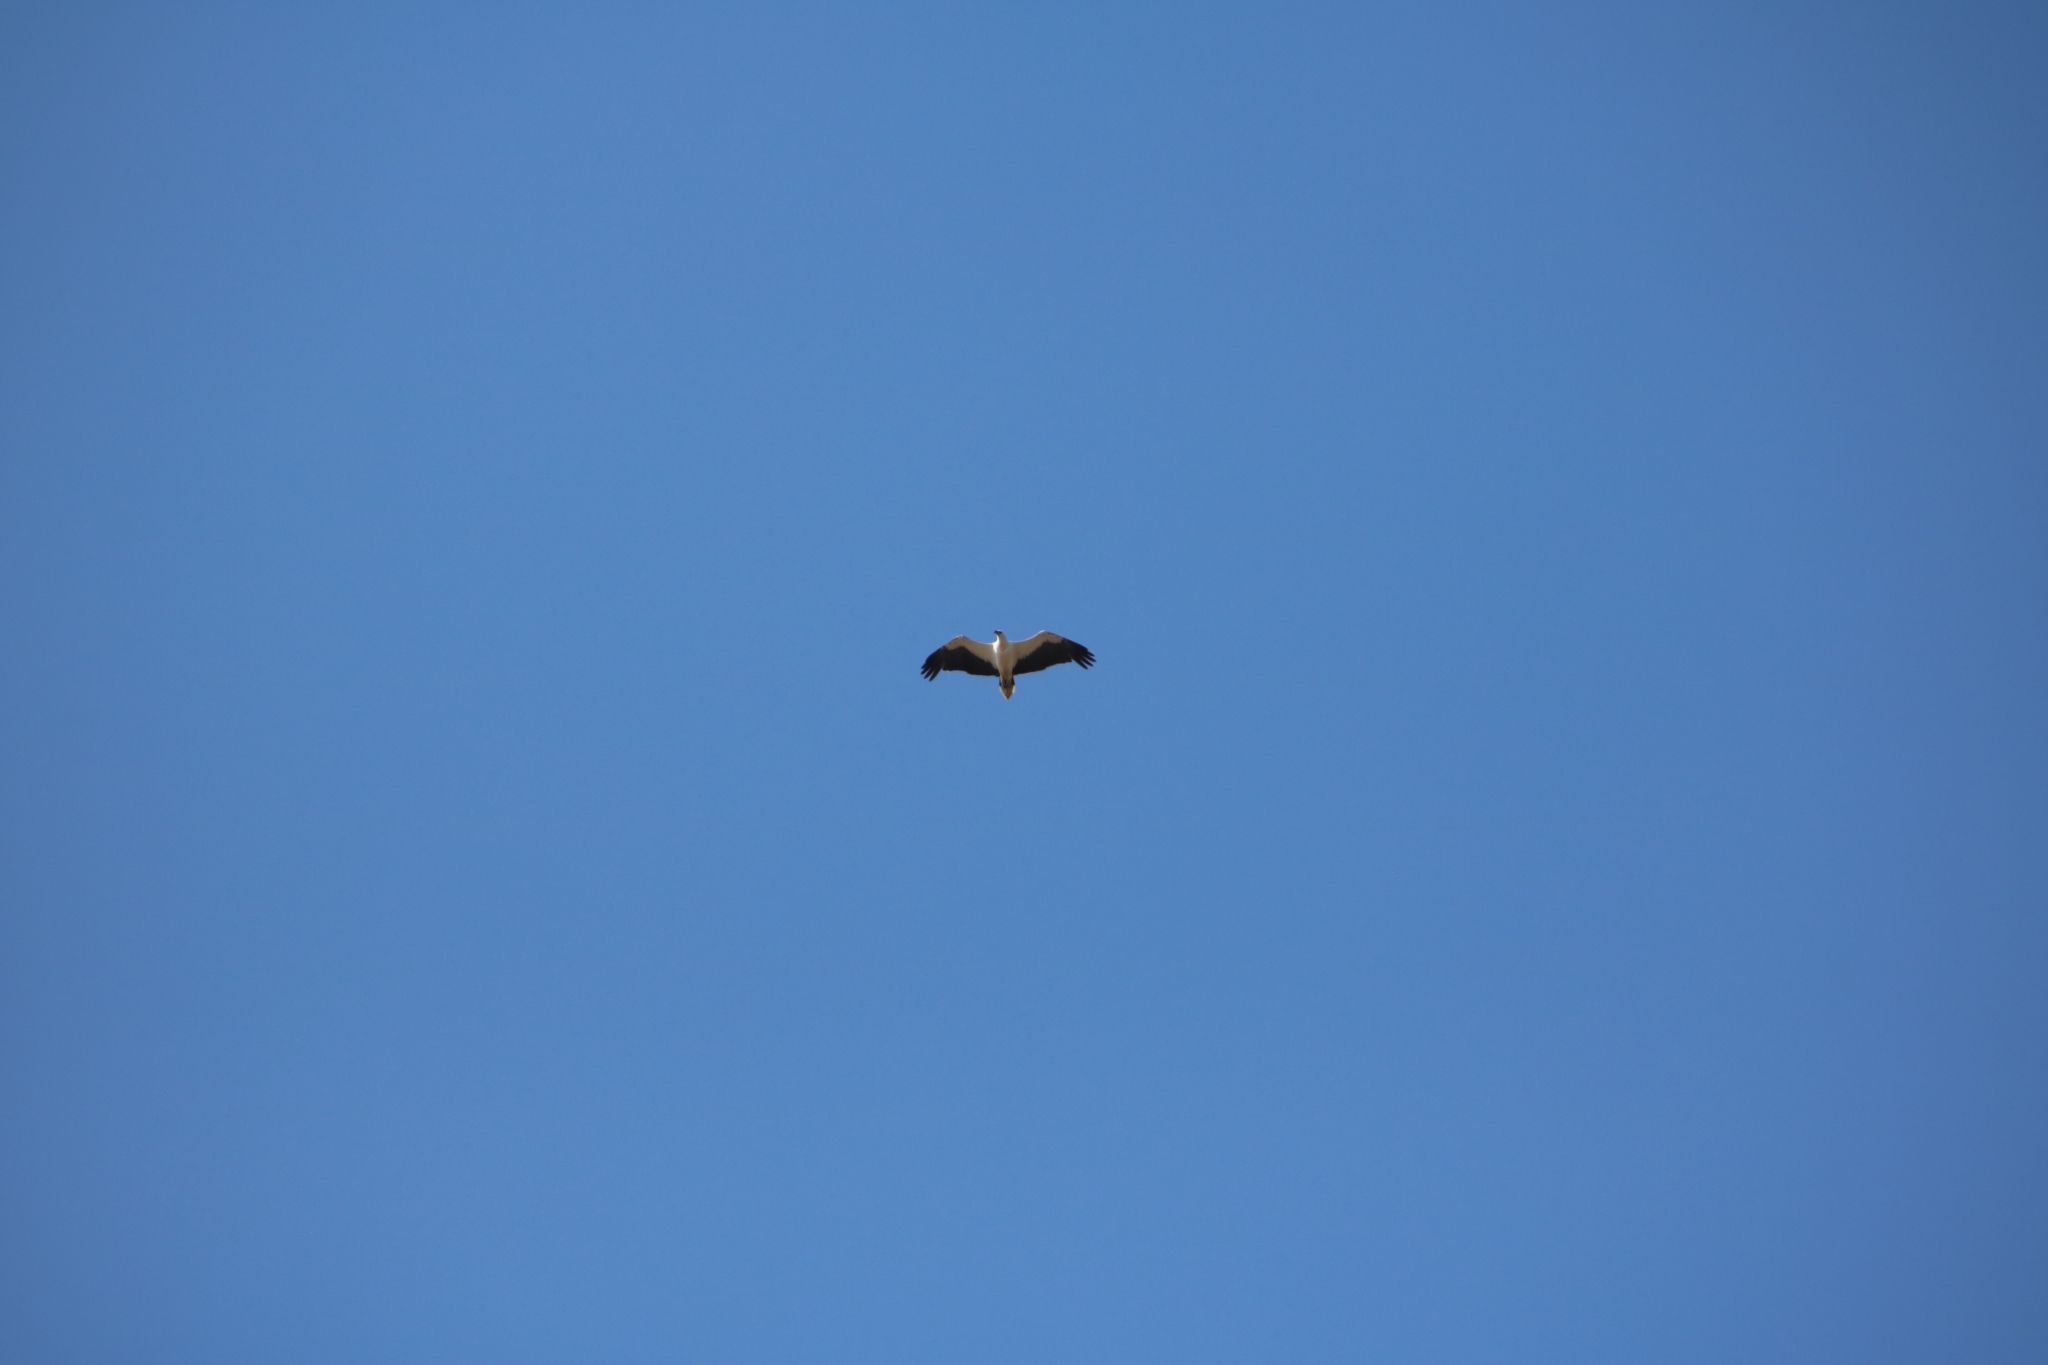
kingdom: Animalia
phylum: Chordata
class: Aves
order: Accipitriformes
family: Accipitridae
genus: Haliaeetus
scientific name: Haliaeetus leucogaster
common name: White-bellied sea eagle
